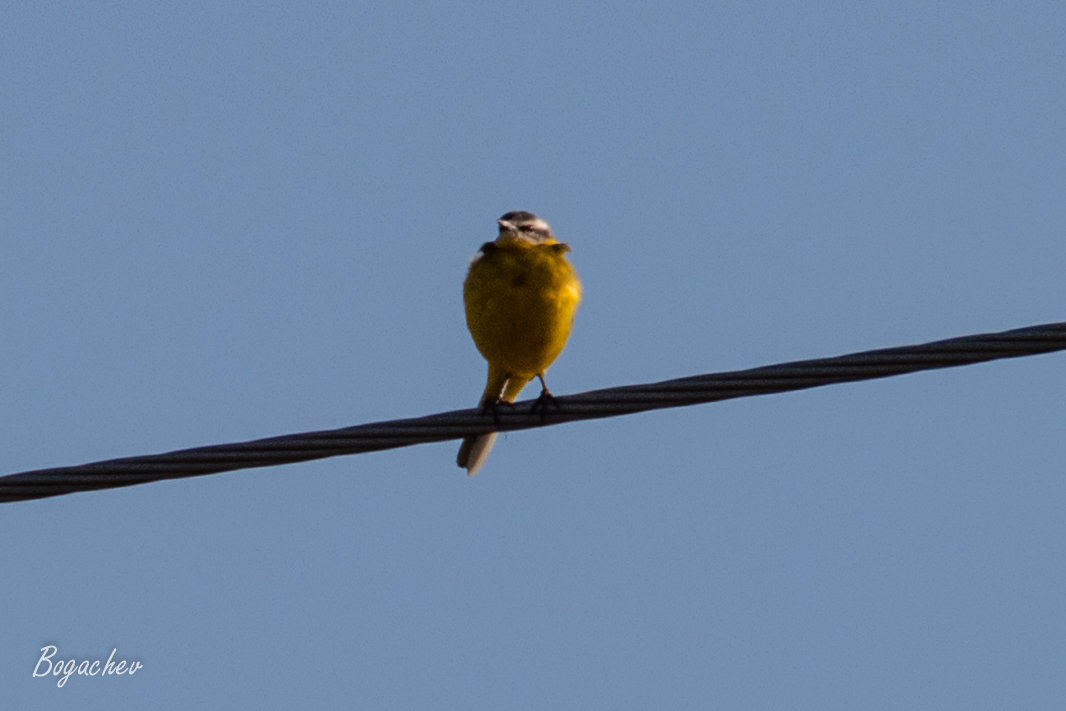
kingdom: Animalia
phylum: Chordata
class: Aves
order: Passeriformes
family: Motacillidae
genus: Motacilla
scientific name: Motacilla flava
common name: Western yellow wagtail
